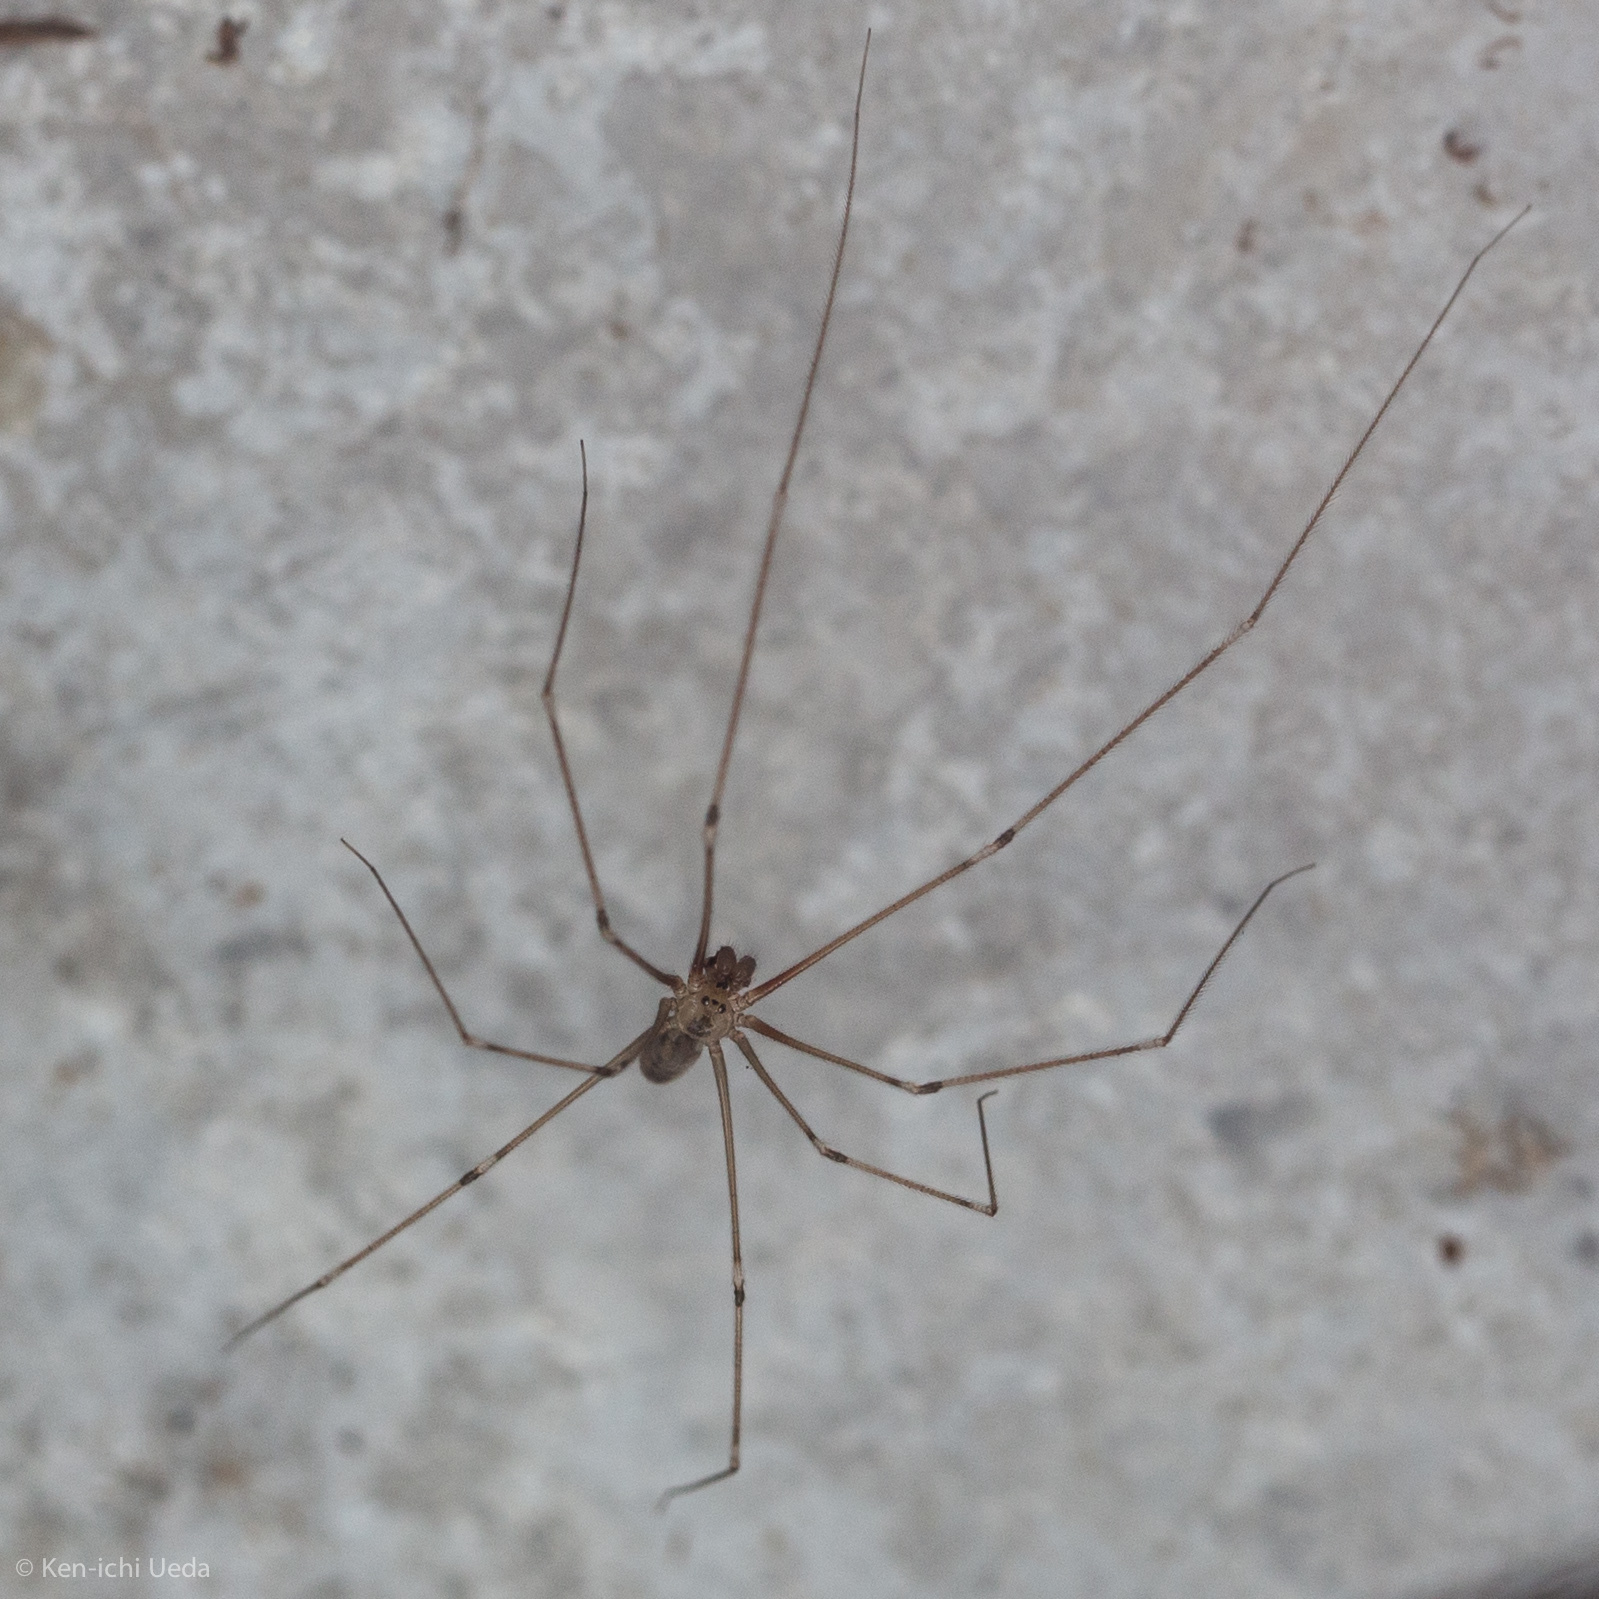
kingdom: Animalia
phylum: Arthropoda
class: Arachnida
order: Araneae
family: Pholcidae
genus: Pholcus
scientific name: Pholcus phalangioides
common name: Longbodied cellar spider
